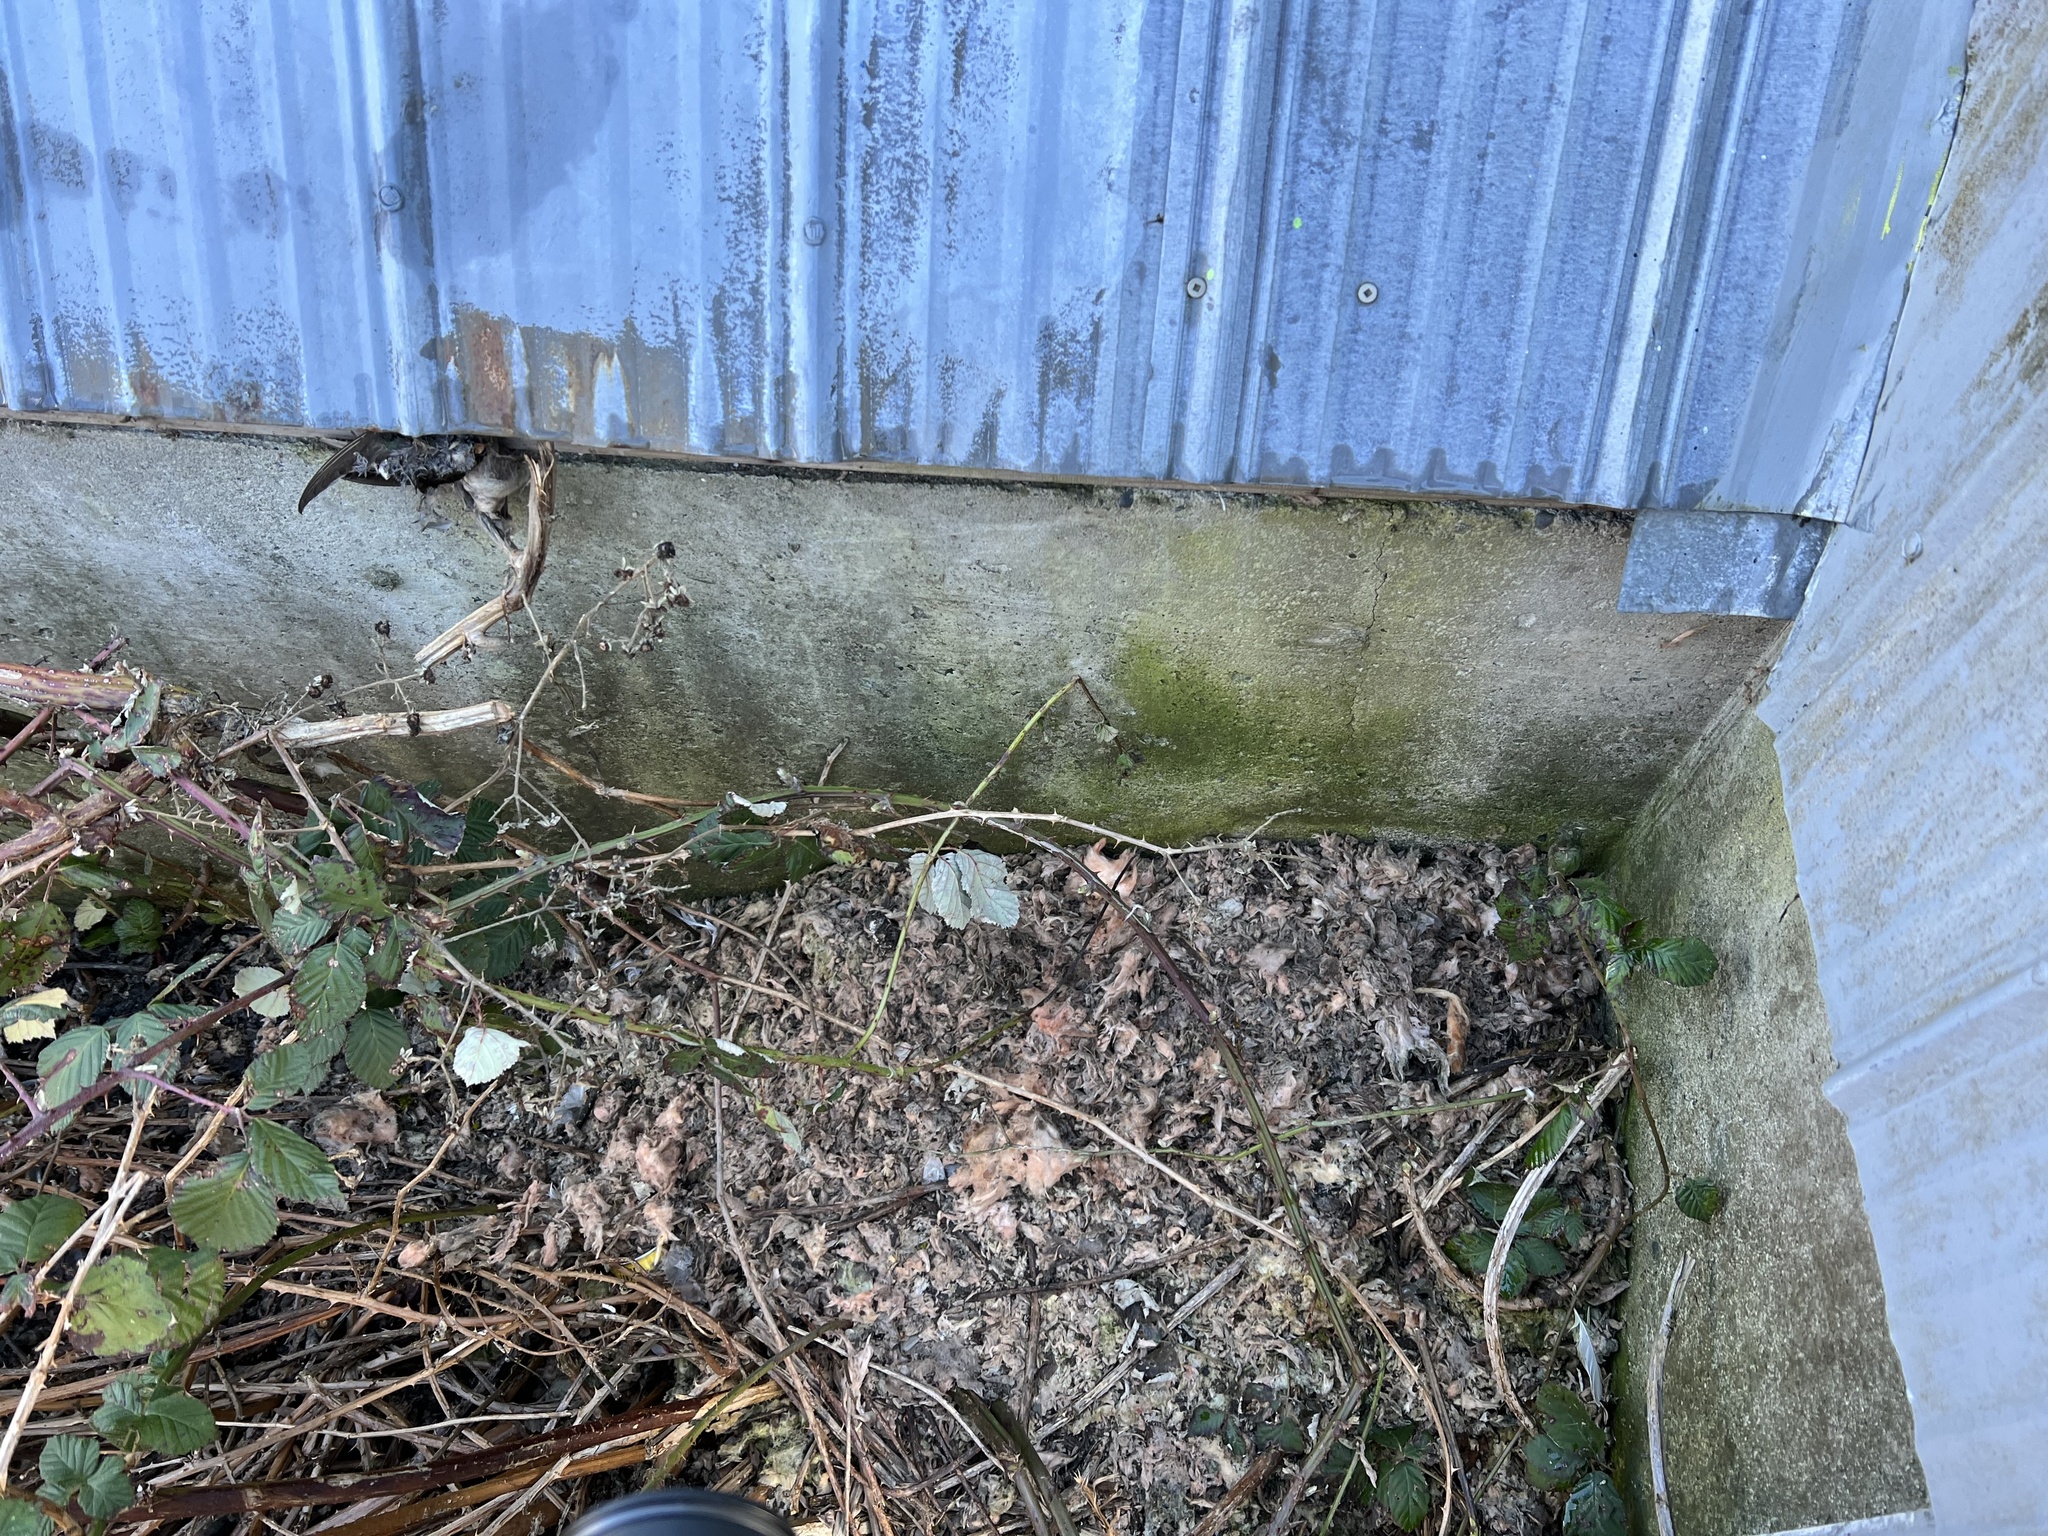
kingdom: Animalia
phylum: Chordata
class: Aves
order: Passeriformes
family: Hirundinidae
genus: Tachycineta
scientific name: Tachycineta thalassina
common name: Violet-green swallow
